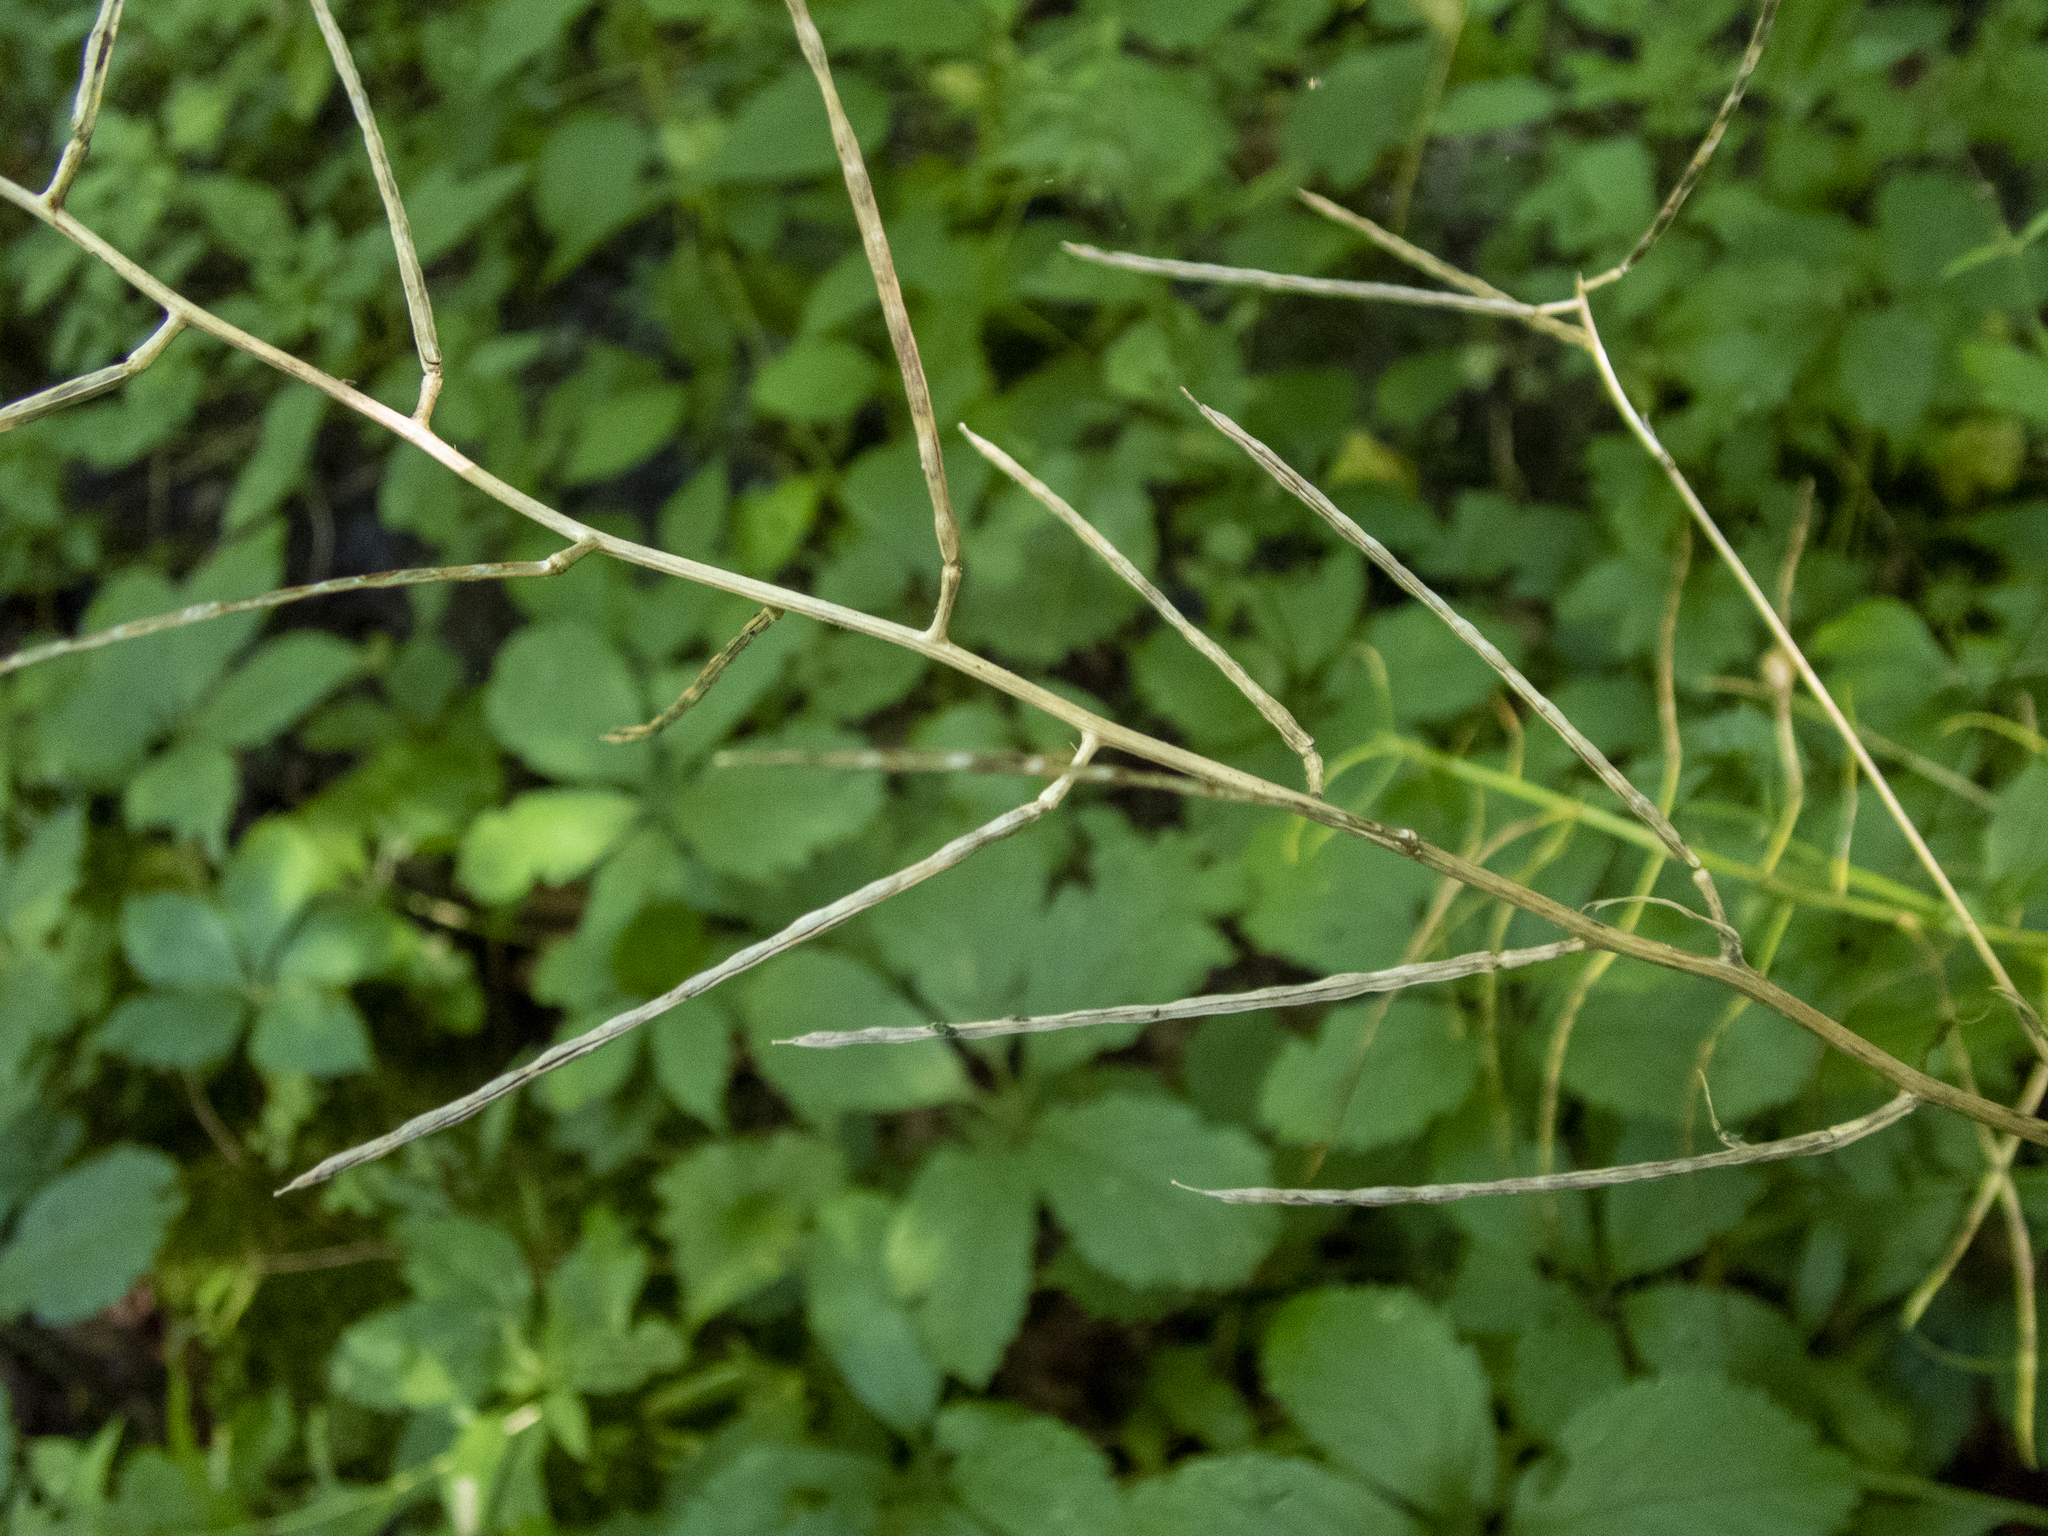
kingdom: Plantae
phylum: Tracheophyta
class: Magnoliopsida
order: Brassicales
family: Brassicaceae
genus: Alliaria
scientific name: Alliaria petiolata
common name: Garlic mustard
